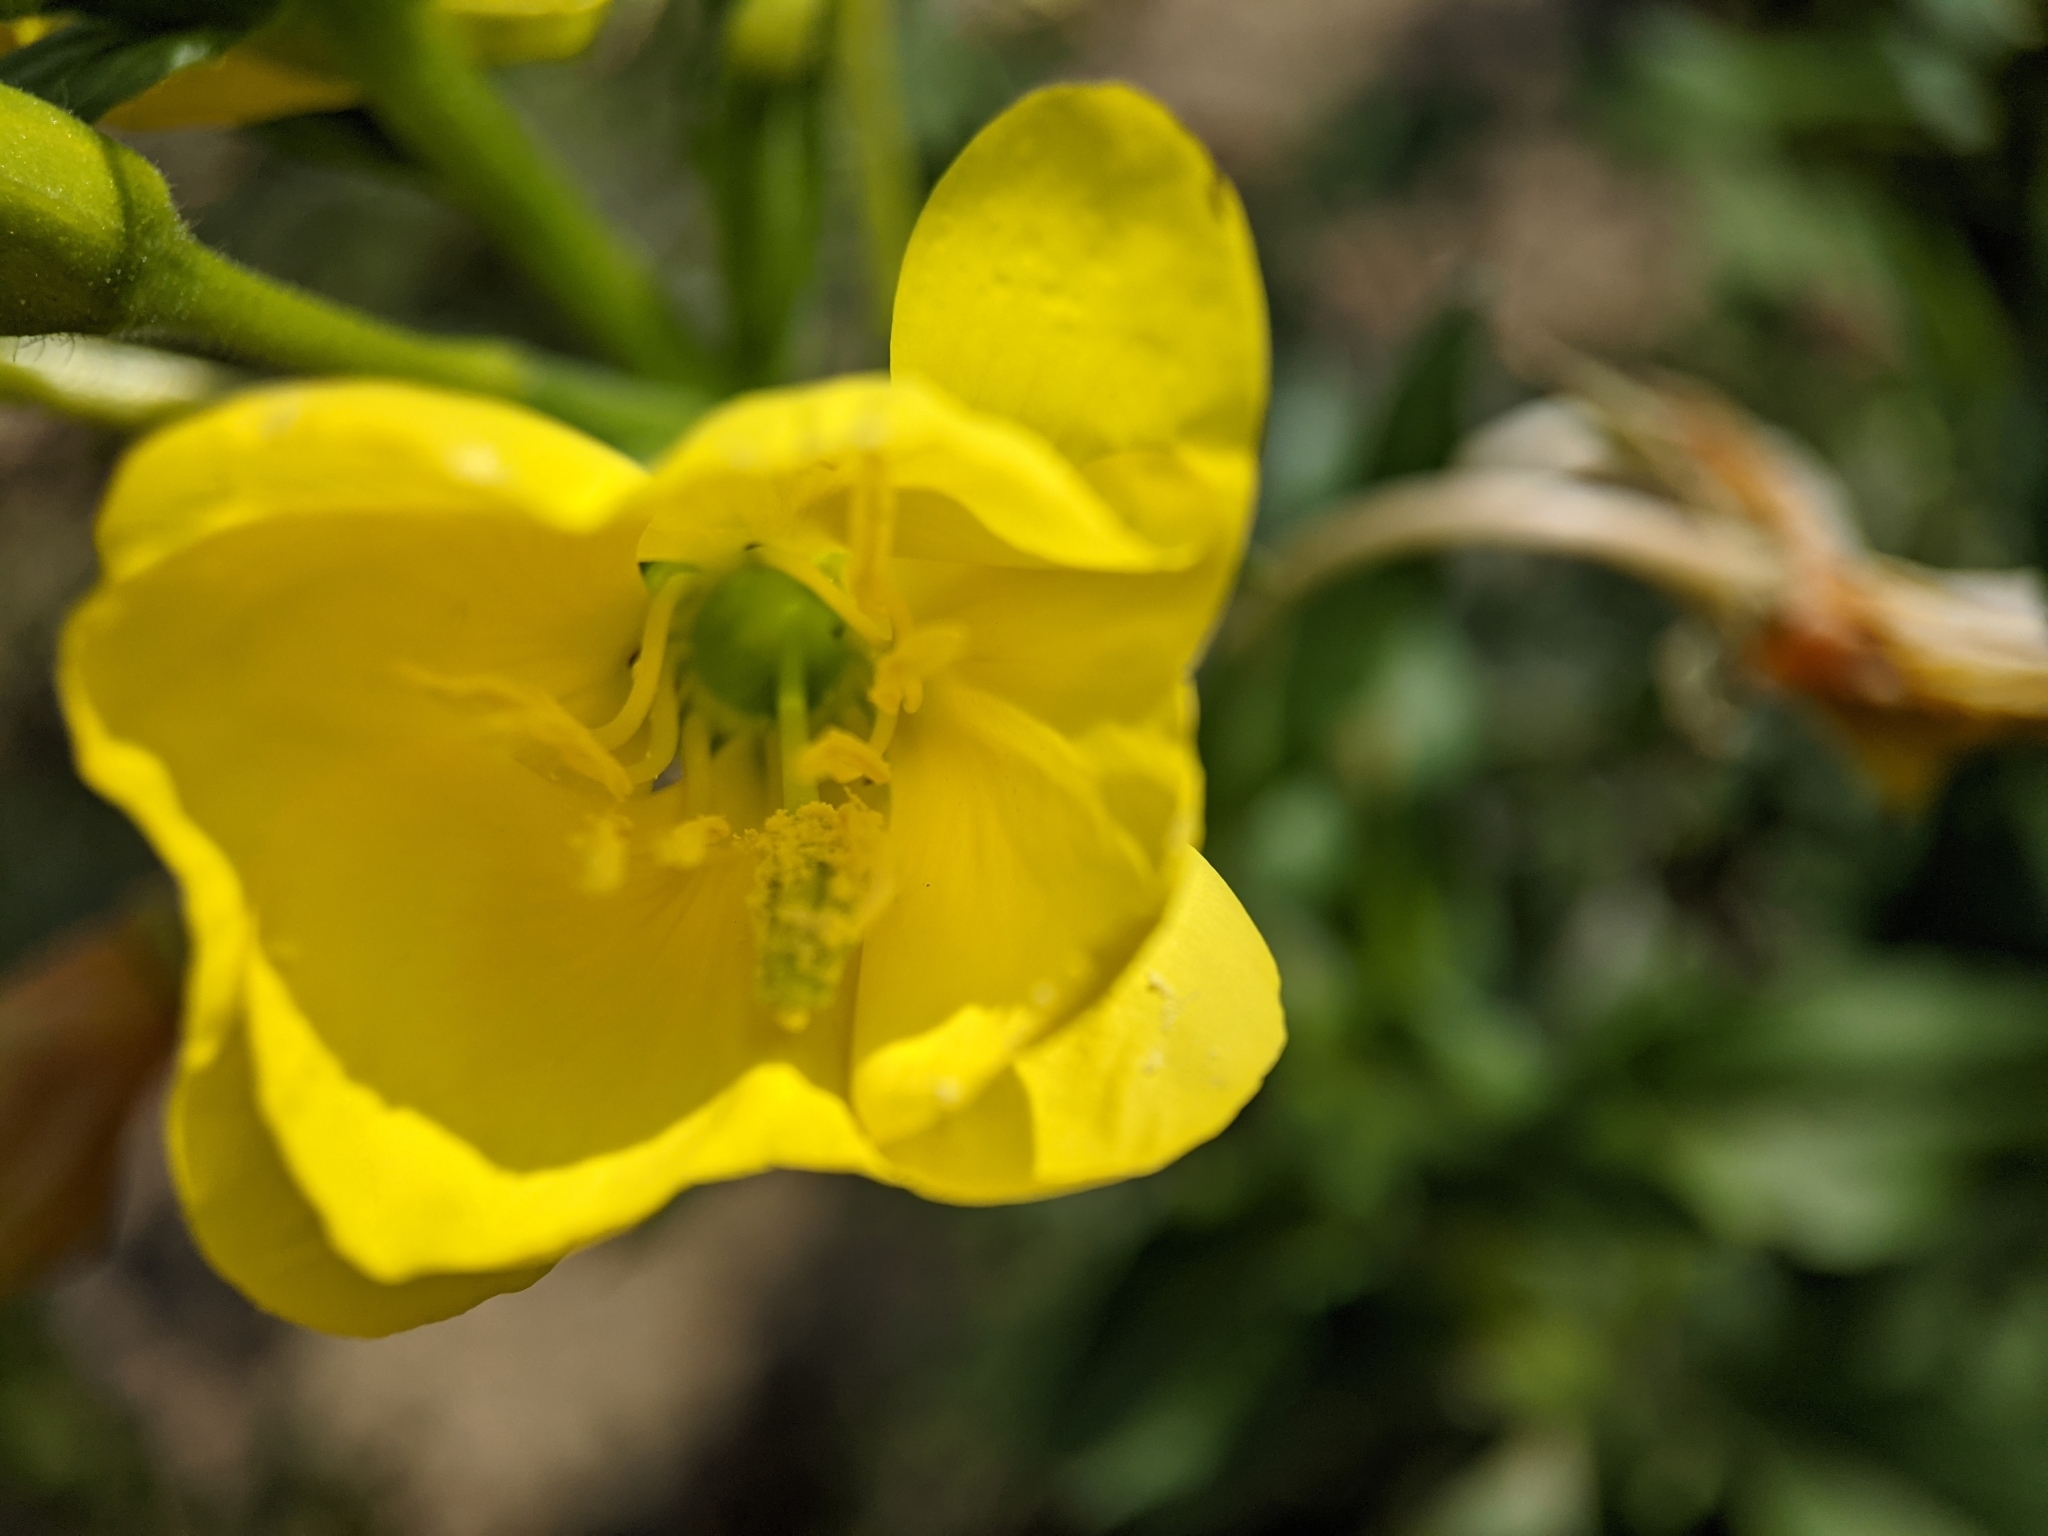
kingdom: Plantae
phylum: Tracheophyta
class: Magnoliopsida
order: Myrtales
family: Onagraceae
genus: Oenothera
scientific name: Oenothera biennis
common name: Common evening-primrose
